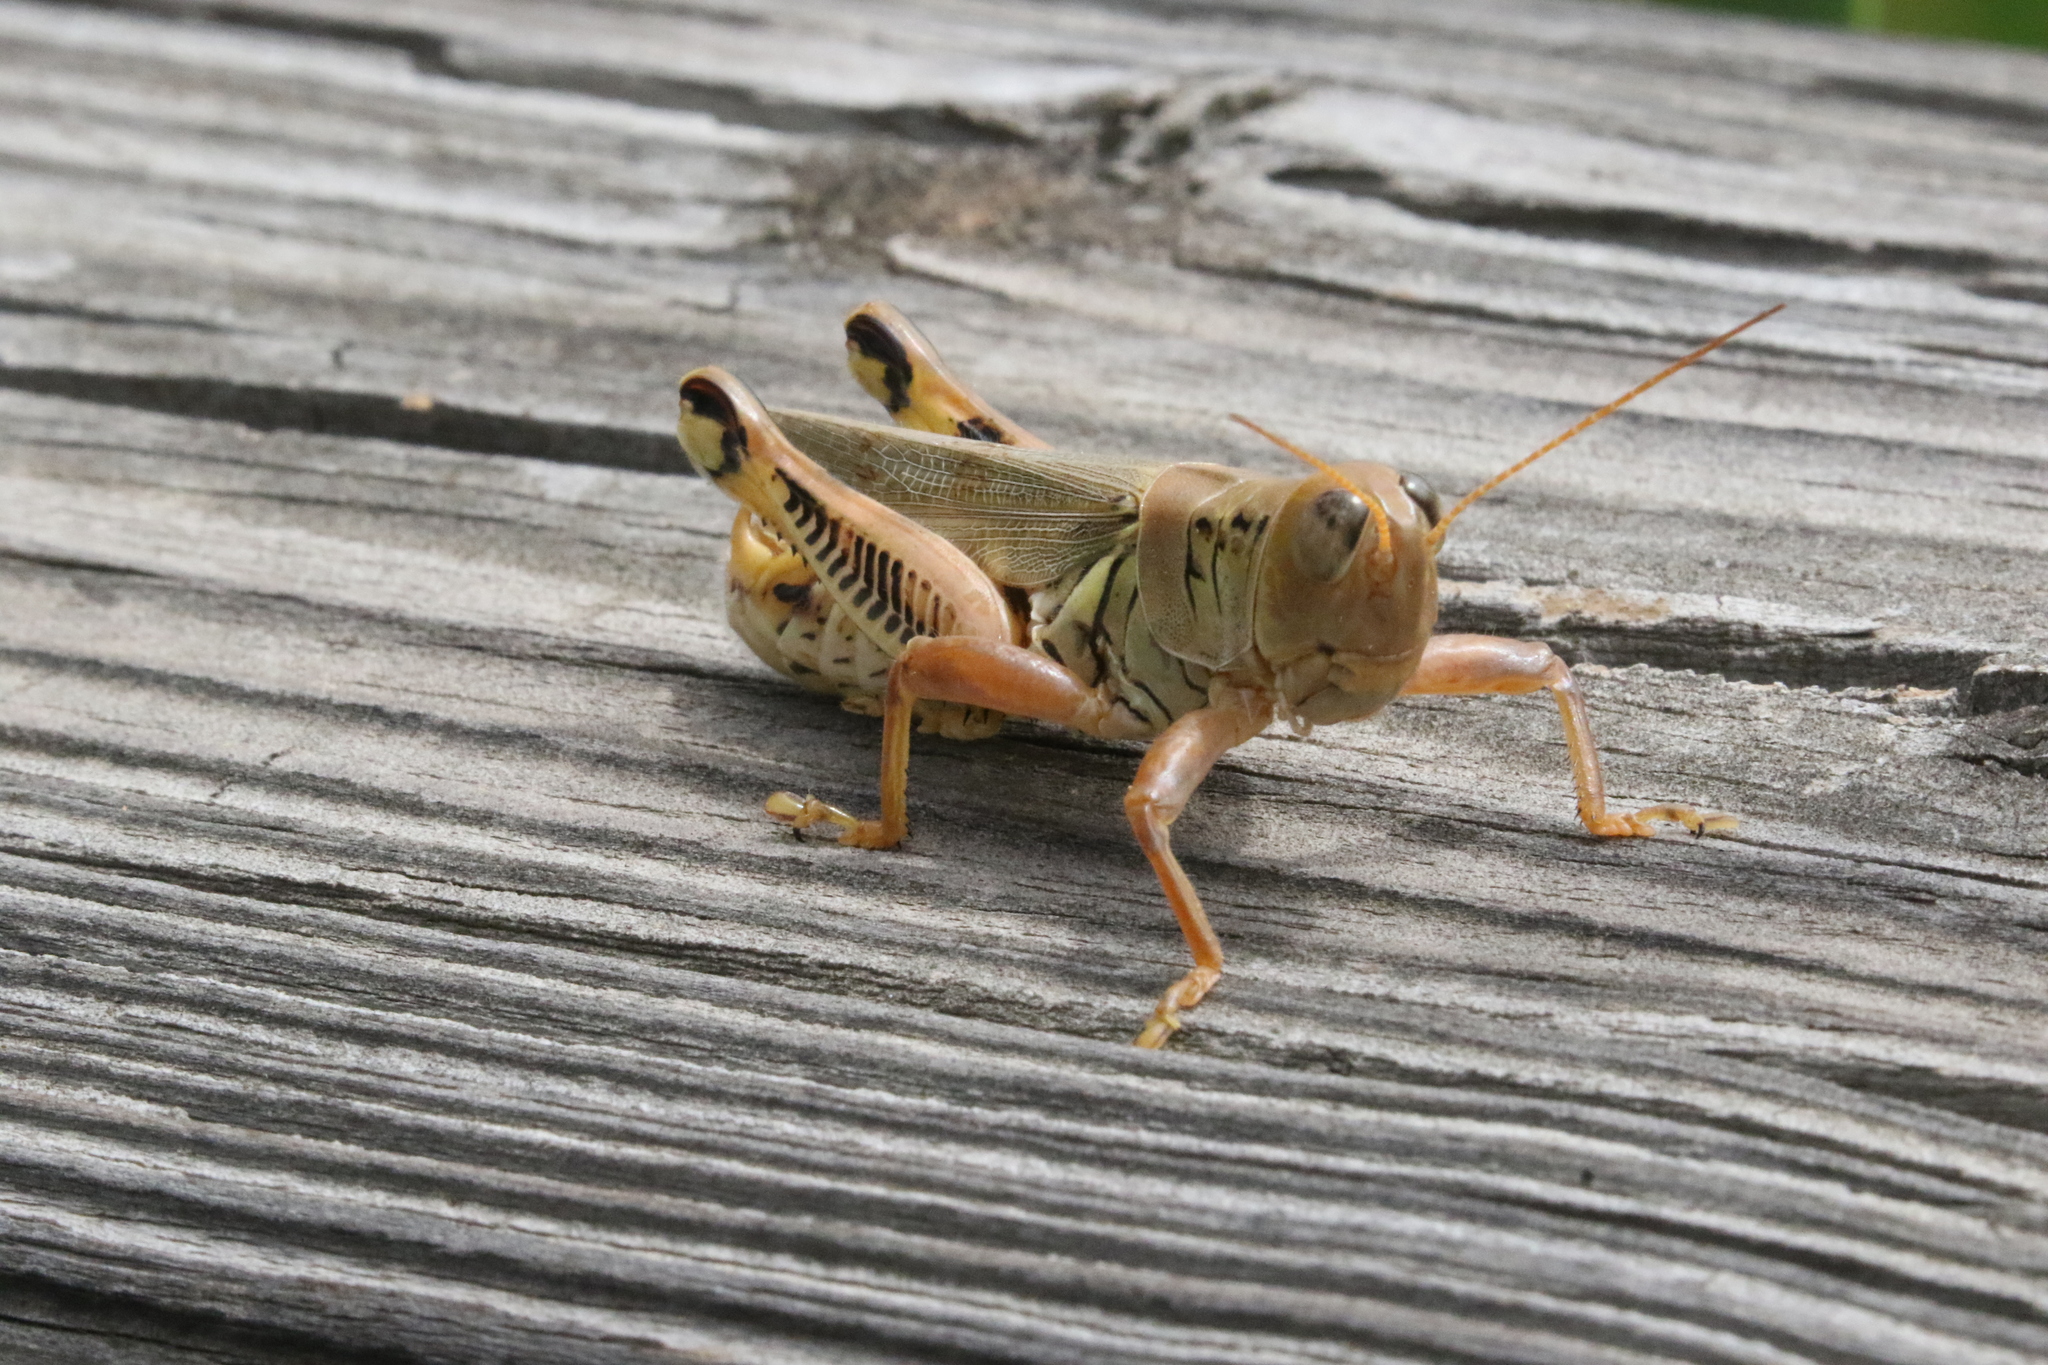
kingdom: Animalia
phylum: Arthropoda
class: Insecta
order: Orthoptera
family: Acrididae
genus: Melanoplus
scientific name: Melanoplus differentialis
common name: Differential grasshopper
